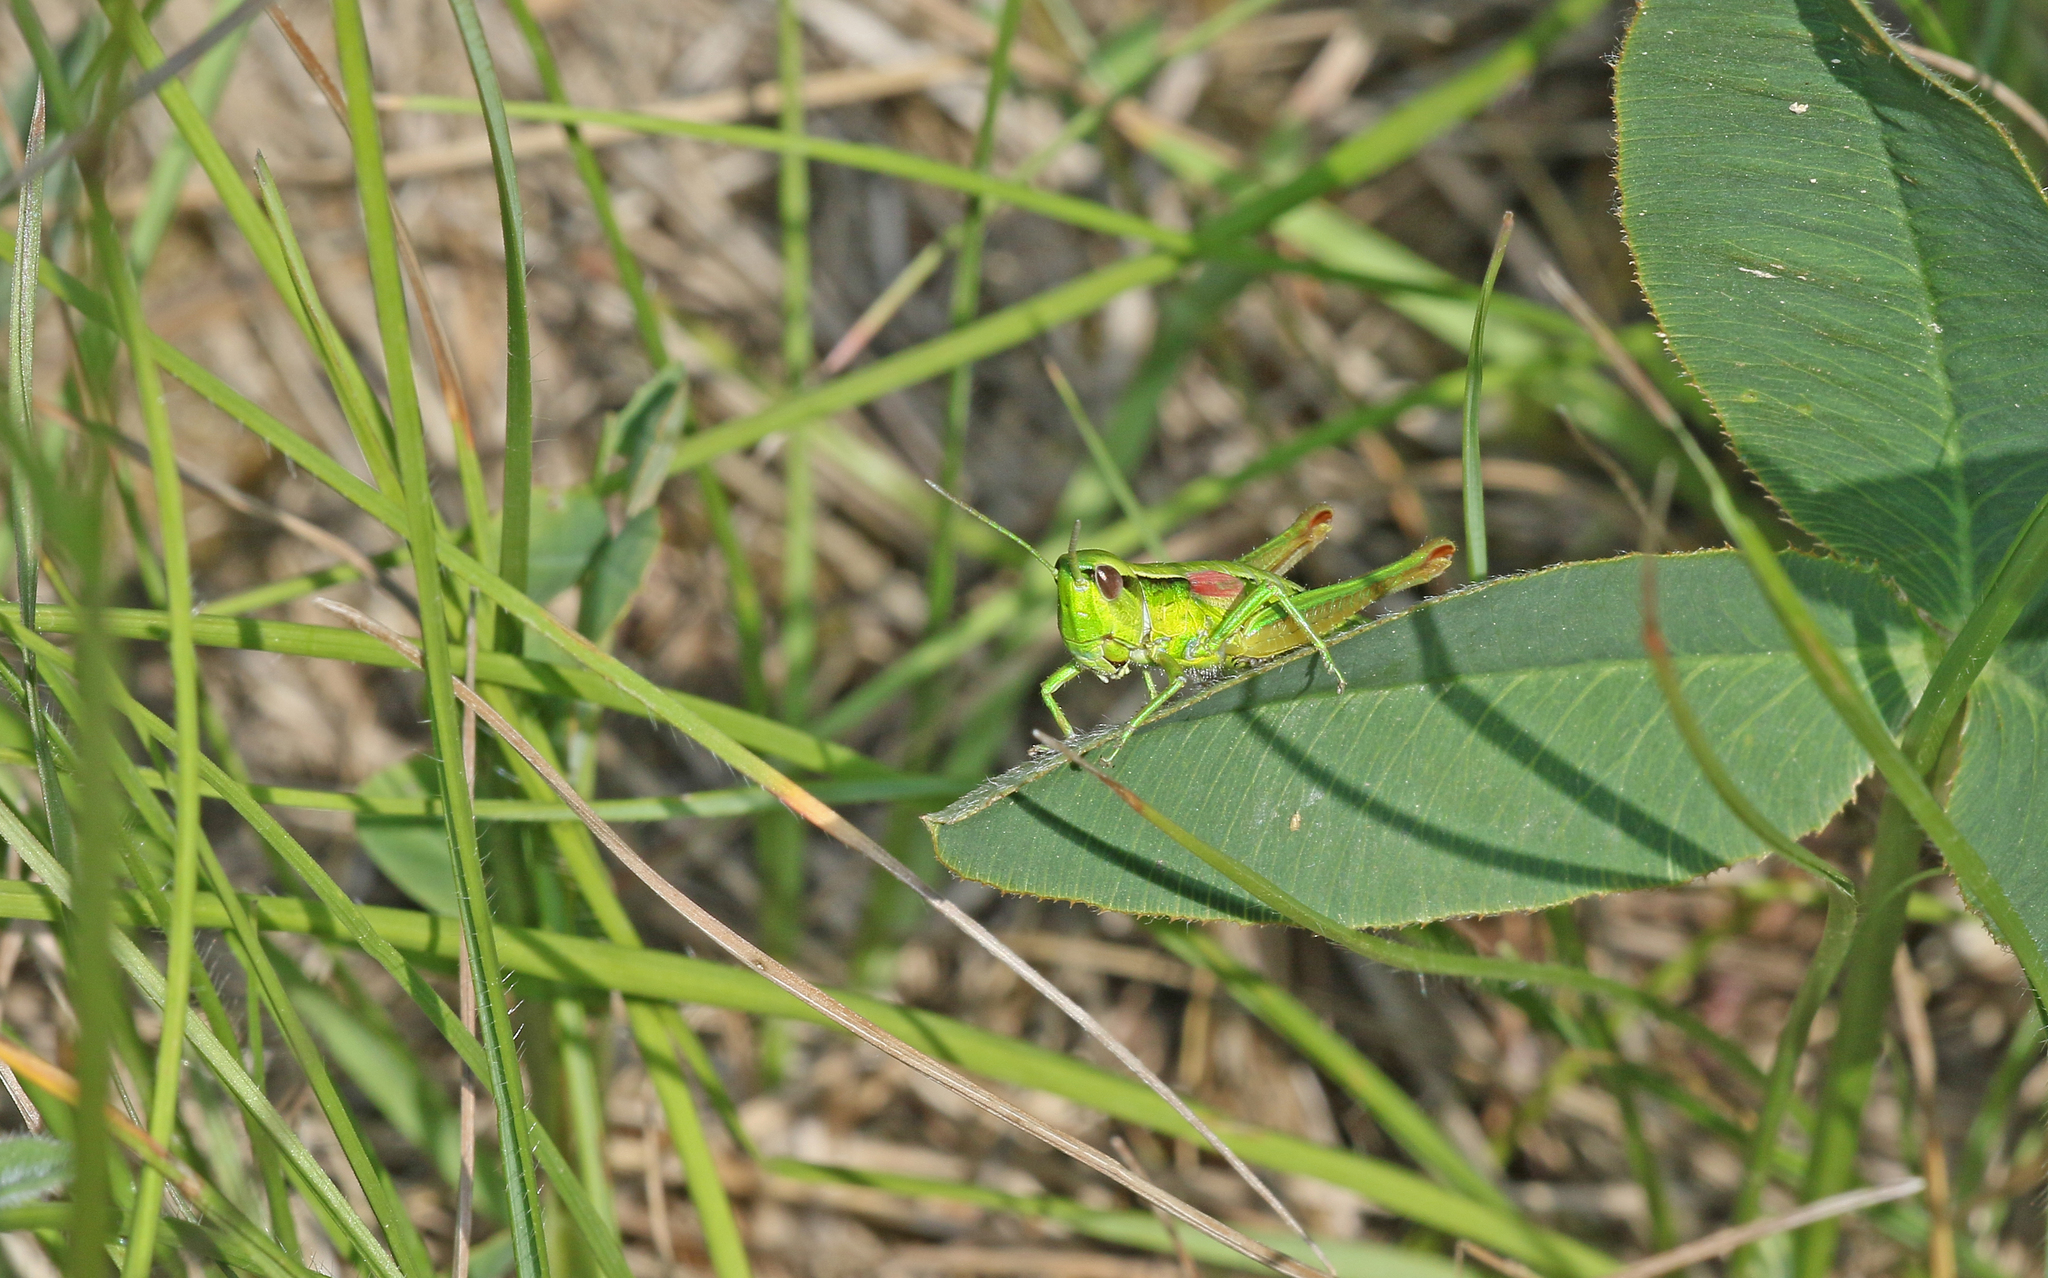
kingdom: Animalia
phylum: Arthropoda
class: Insecta
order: Orthoptera
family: Acrididae
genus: Euthystira
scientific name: Euthystira brachyptera
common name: Small gold grasshopper
